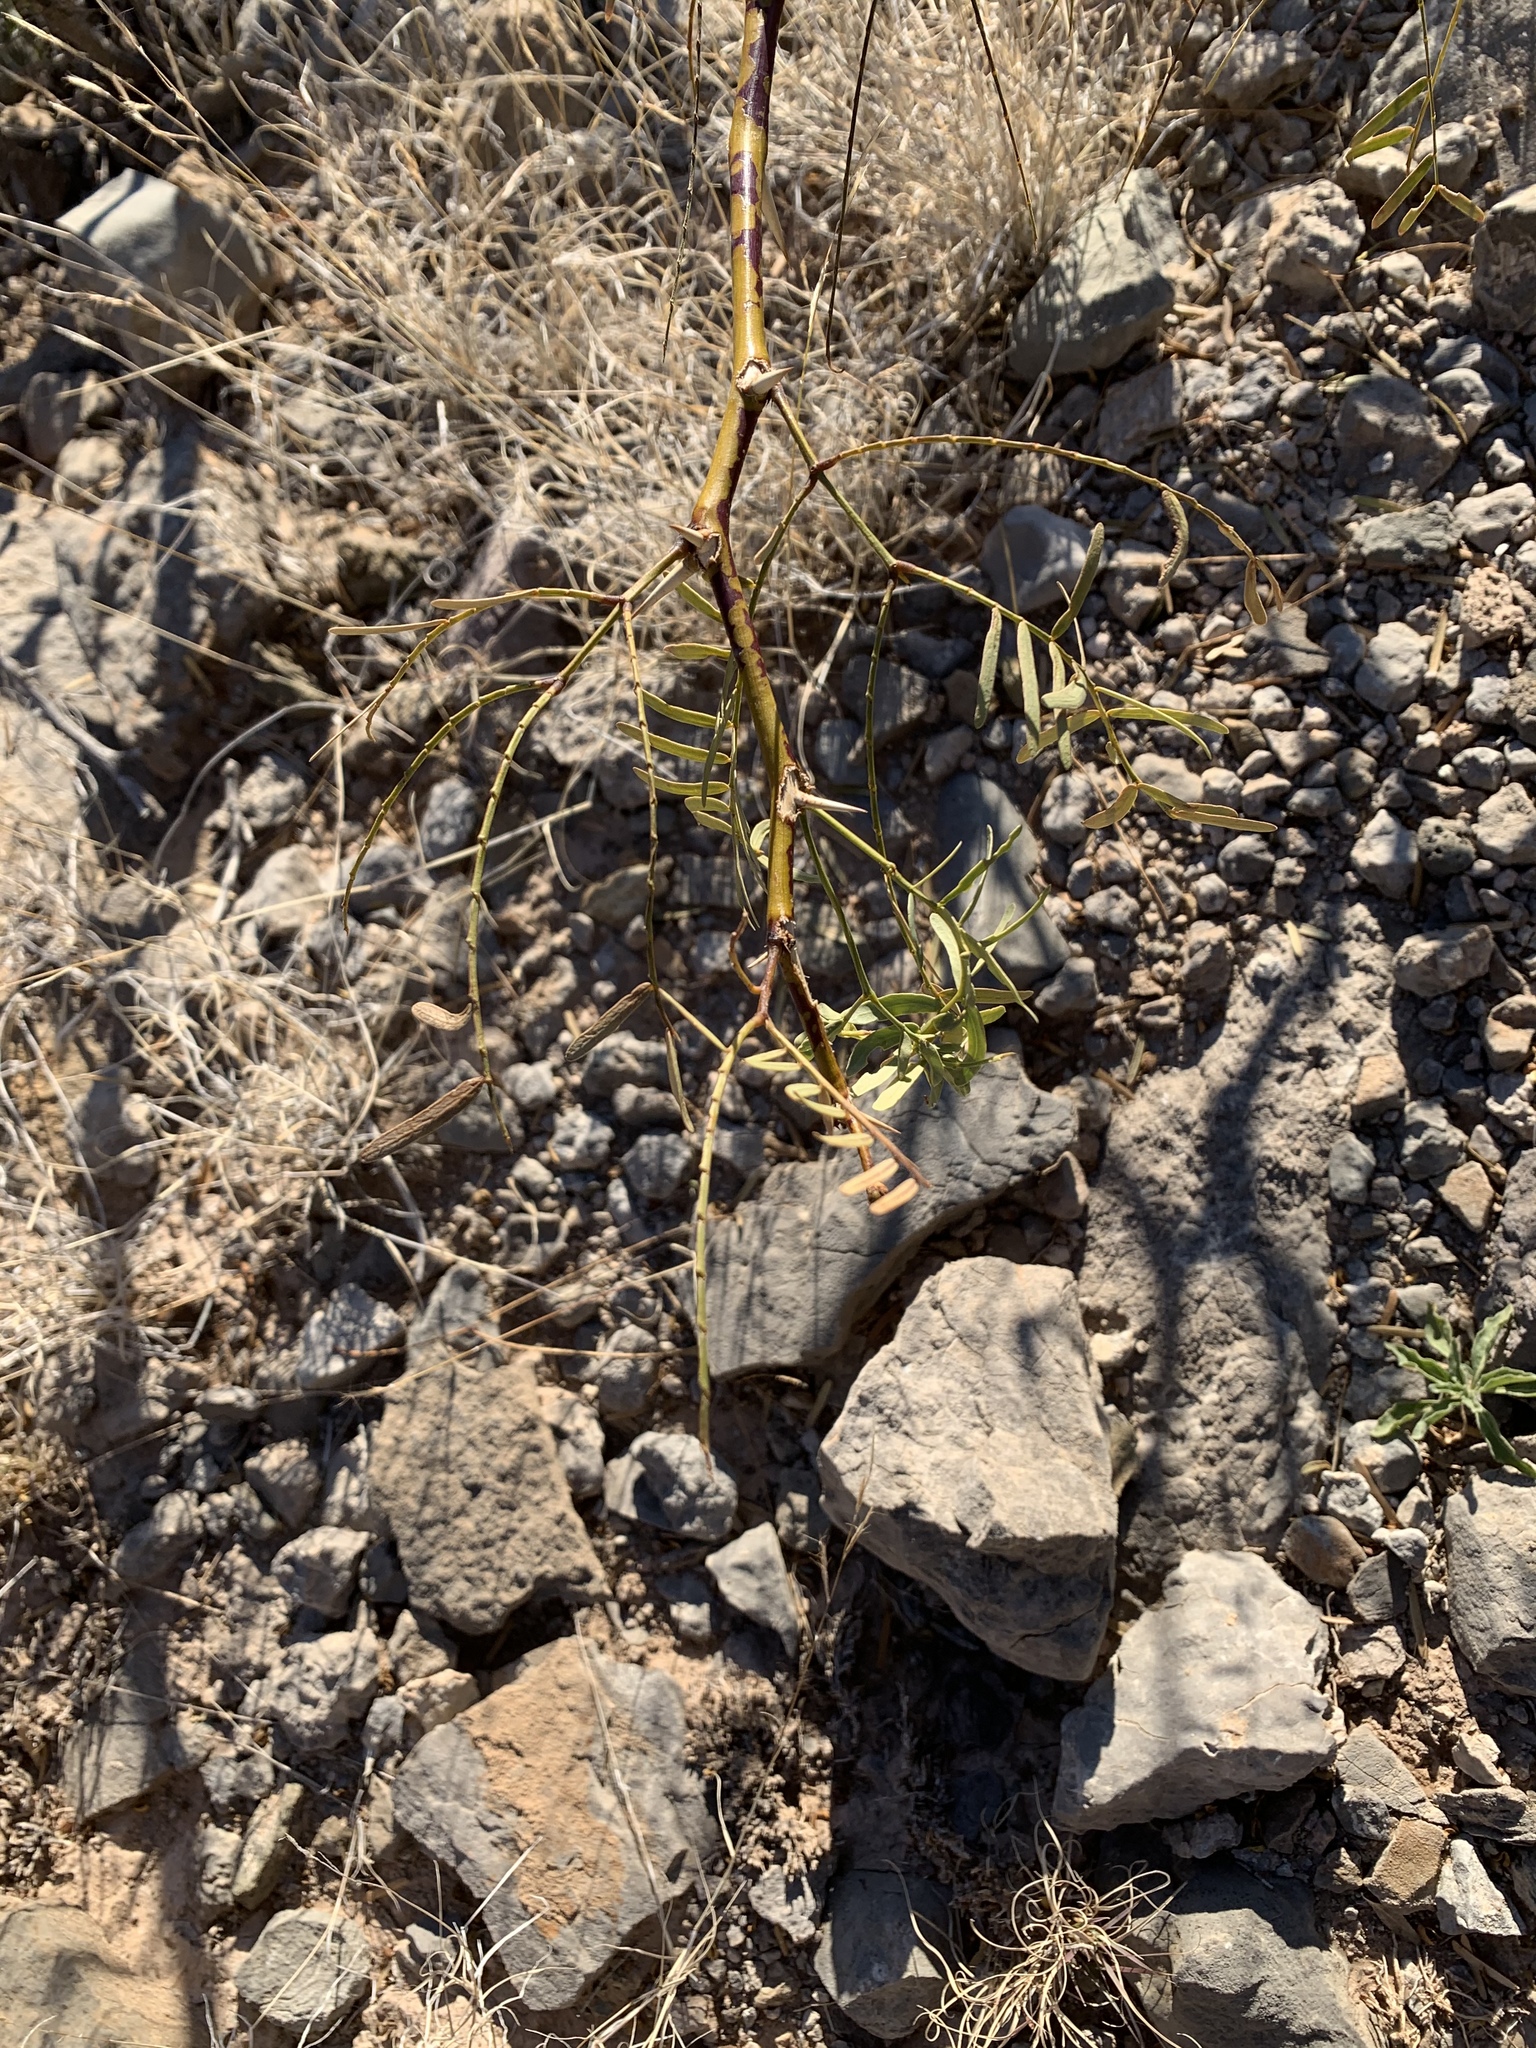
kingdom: Plantae
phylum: Tracheophyta
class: Magnoliopsida
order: Fabales
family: Fabaceae
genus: Prosopis
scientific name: Prosopis glandulosa
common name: Honey mesquite
